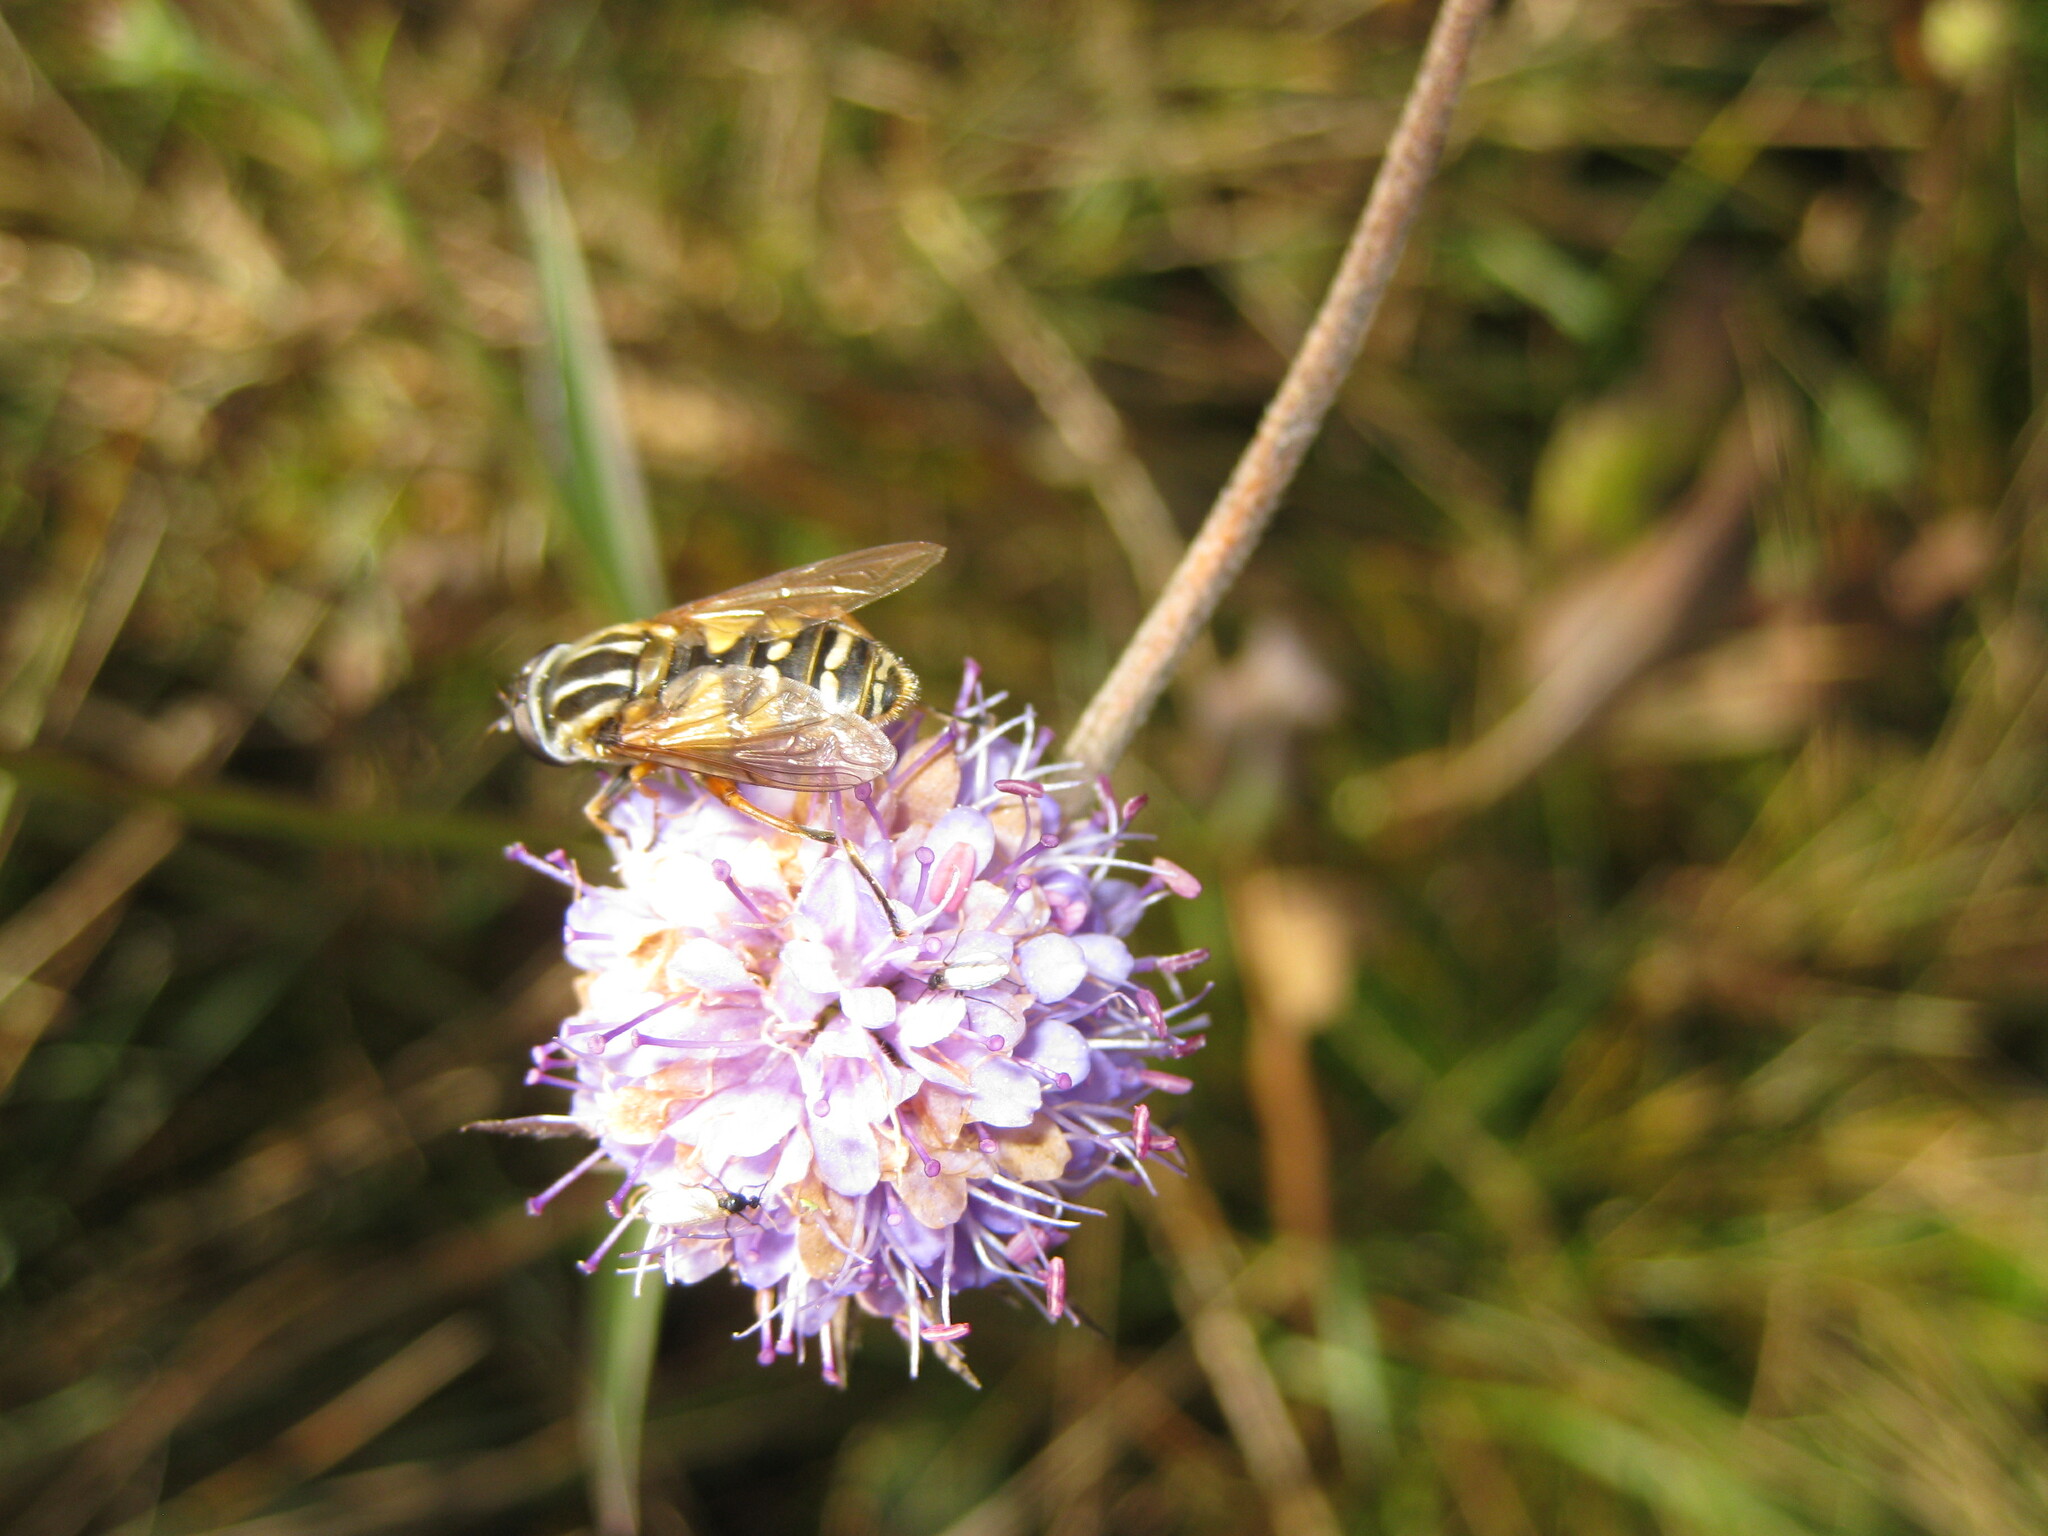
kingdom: Animalia
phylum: Arthropoda
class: Insecta
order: Diptera
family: Syrphidae
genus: Helophilus
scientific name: Helophilus pendulus
